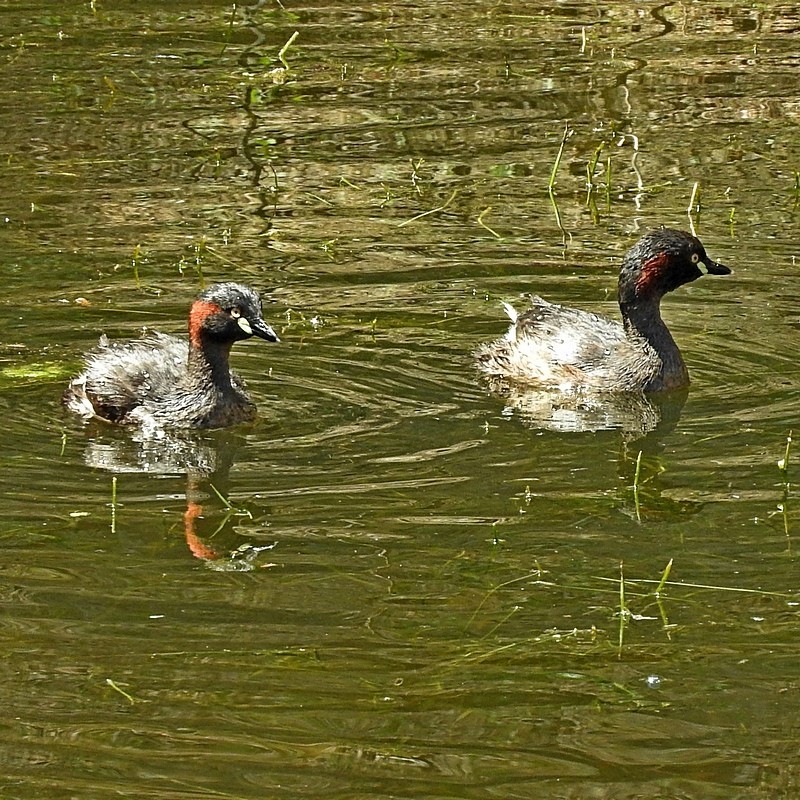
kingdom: Animalia
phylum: Chordata
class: Aves
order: Podicipediformes
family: Podicipedidae
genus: Tachybaptus
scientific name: Tachybaptus novaehollandiae
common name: Australasian grebe
